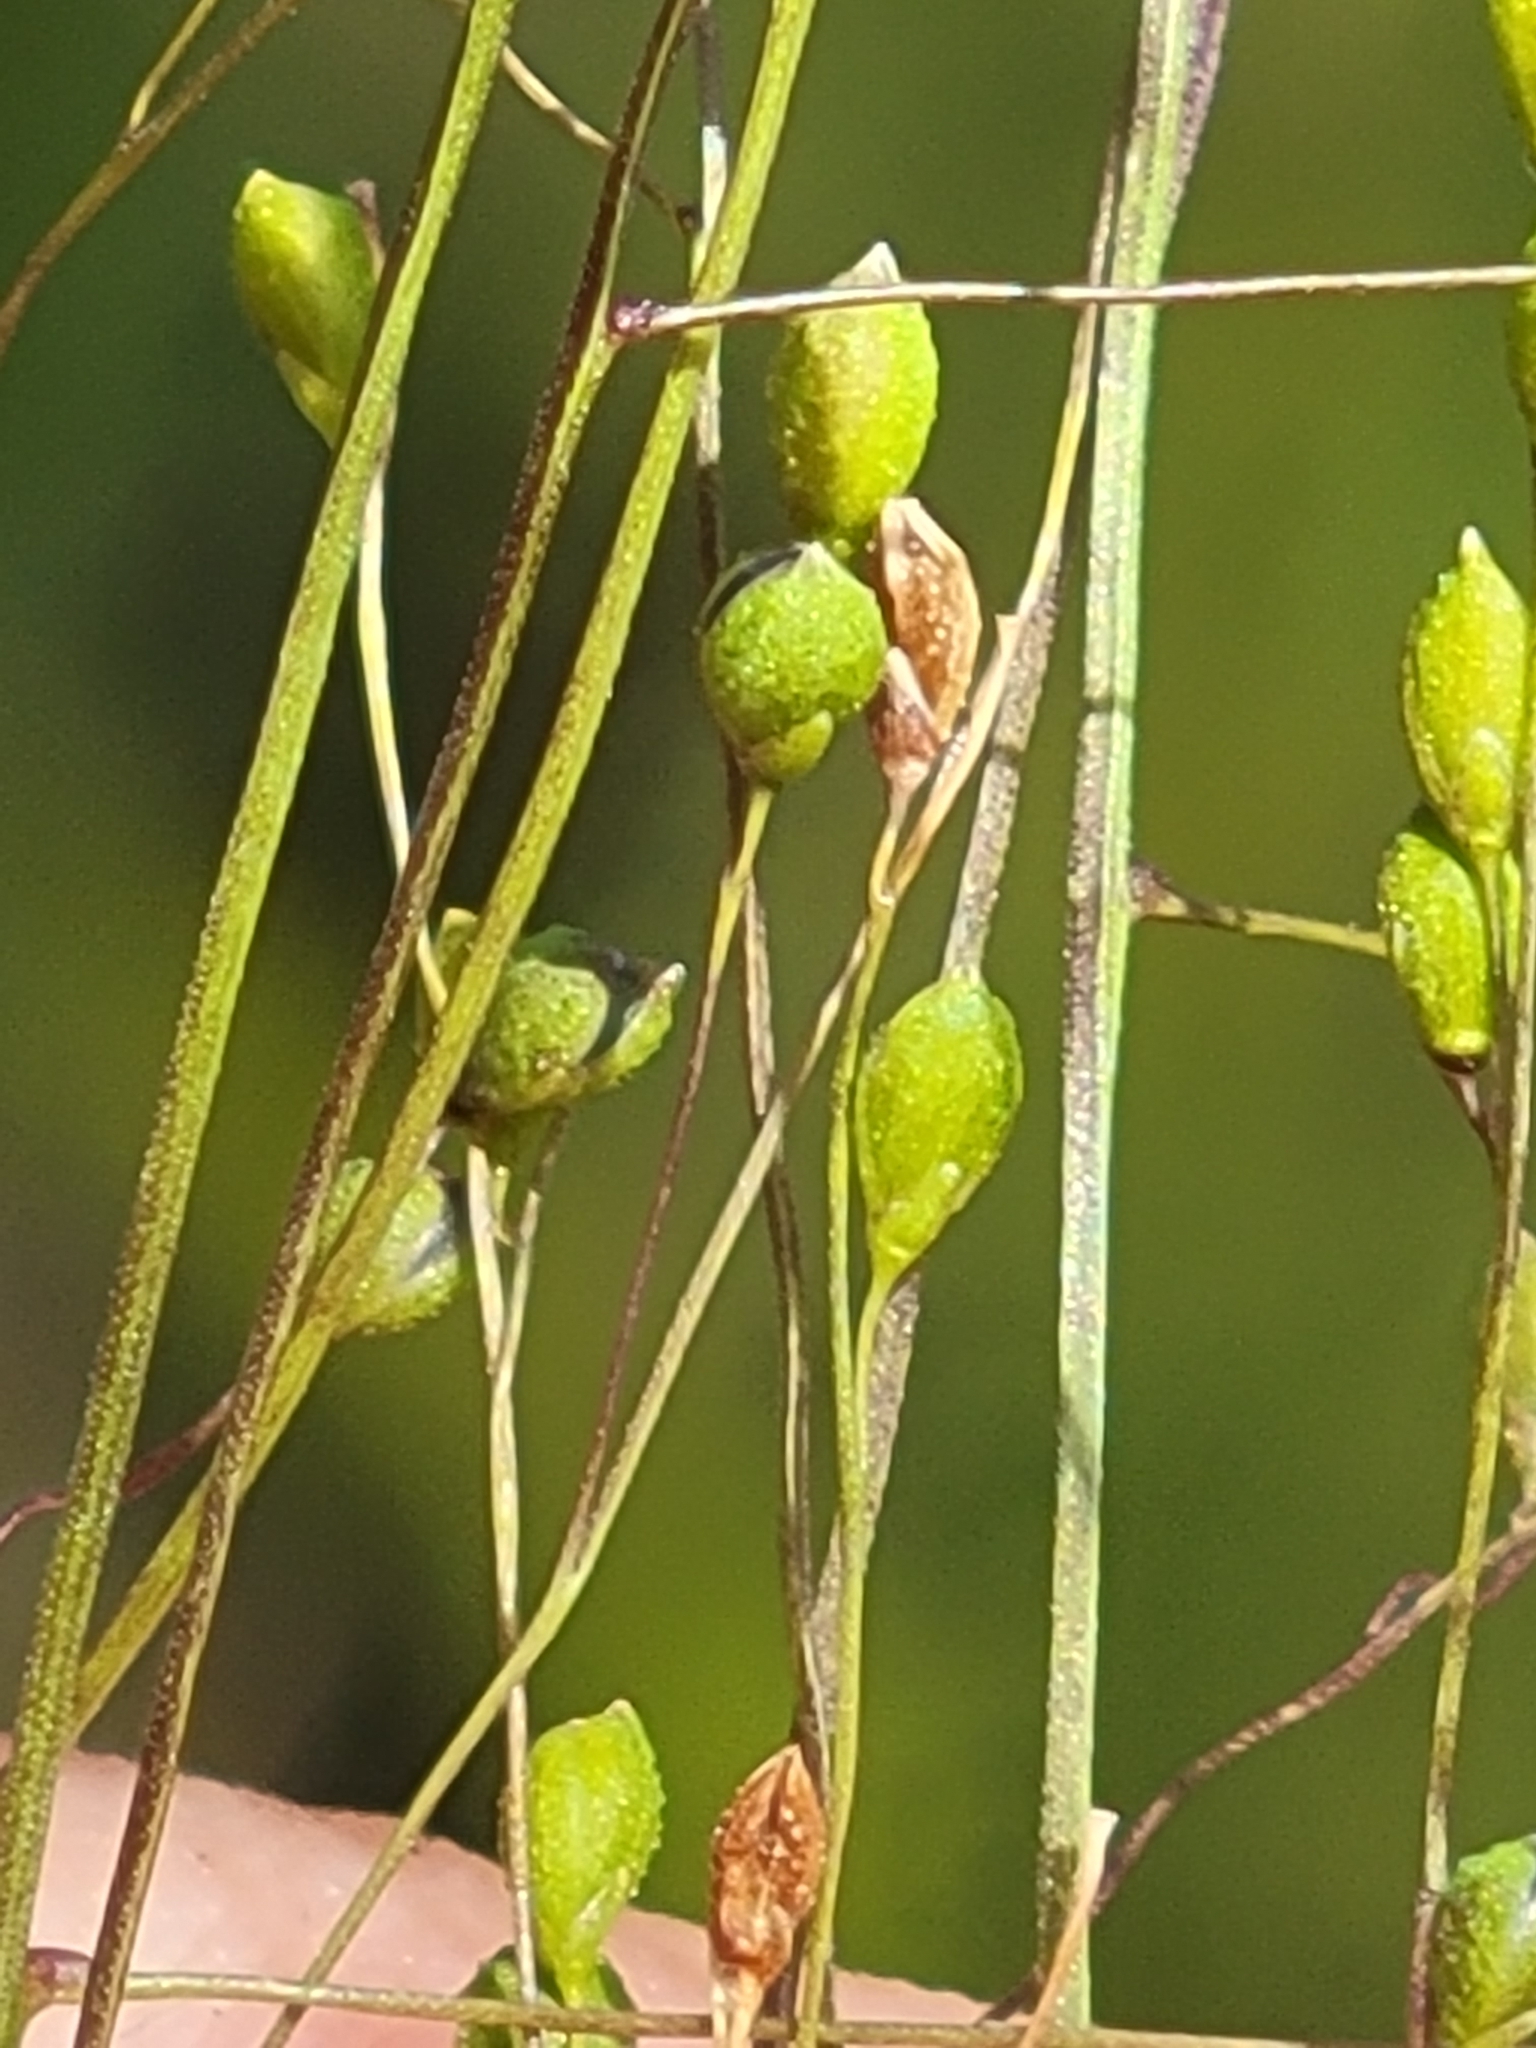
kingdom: Plantae
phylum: Tracheophyta
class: Liliopsida
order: Poales
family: Poaceae
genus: Kellochloa
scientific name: Kellochloa verrucosa
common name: Warty panic grass
